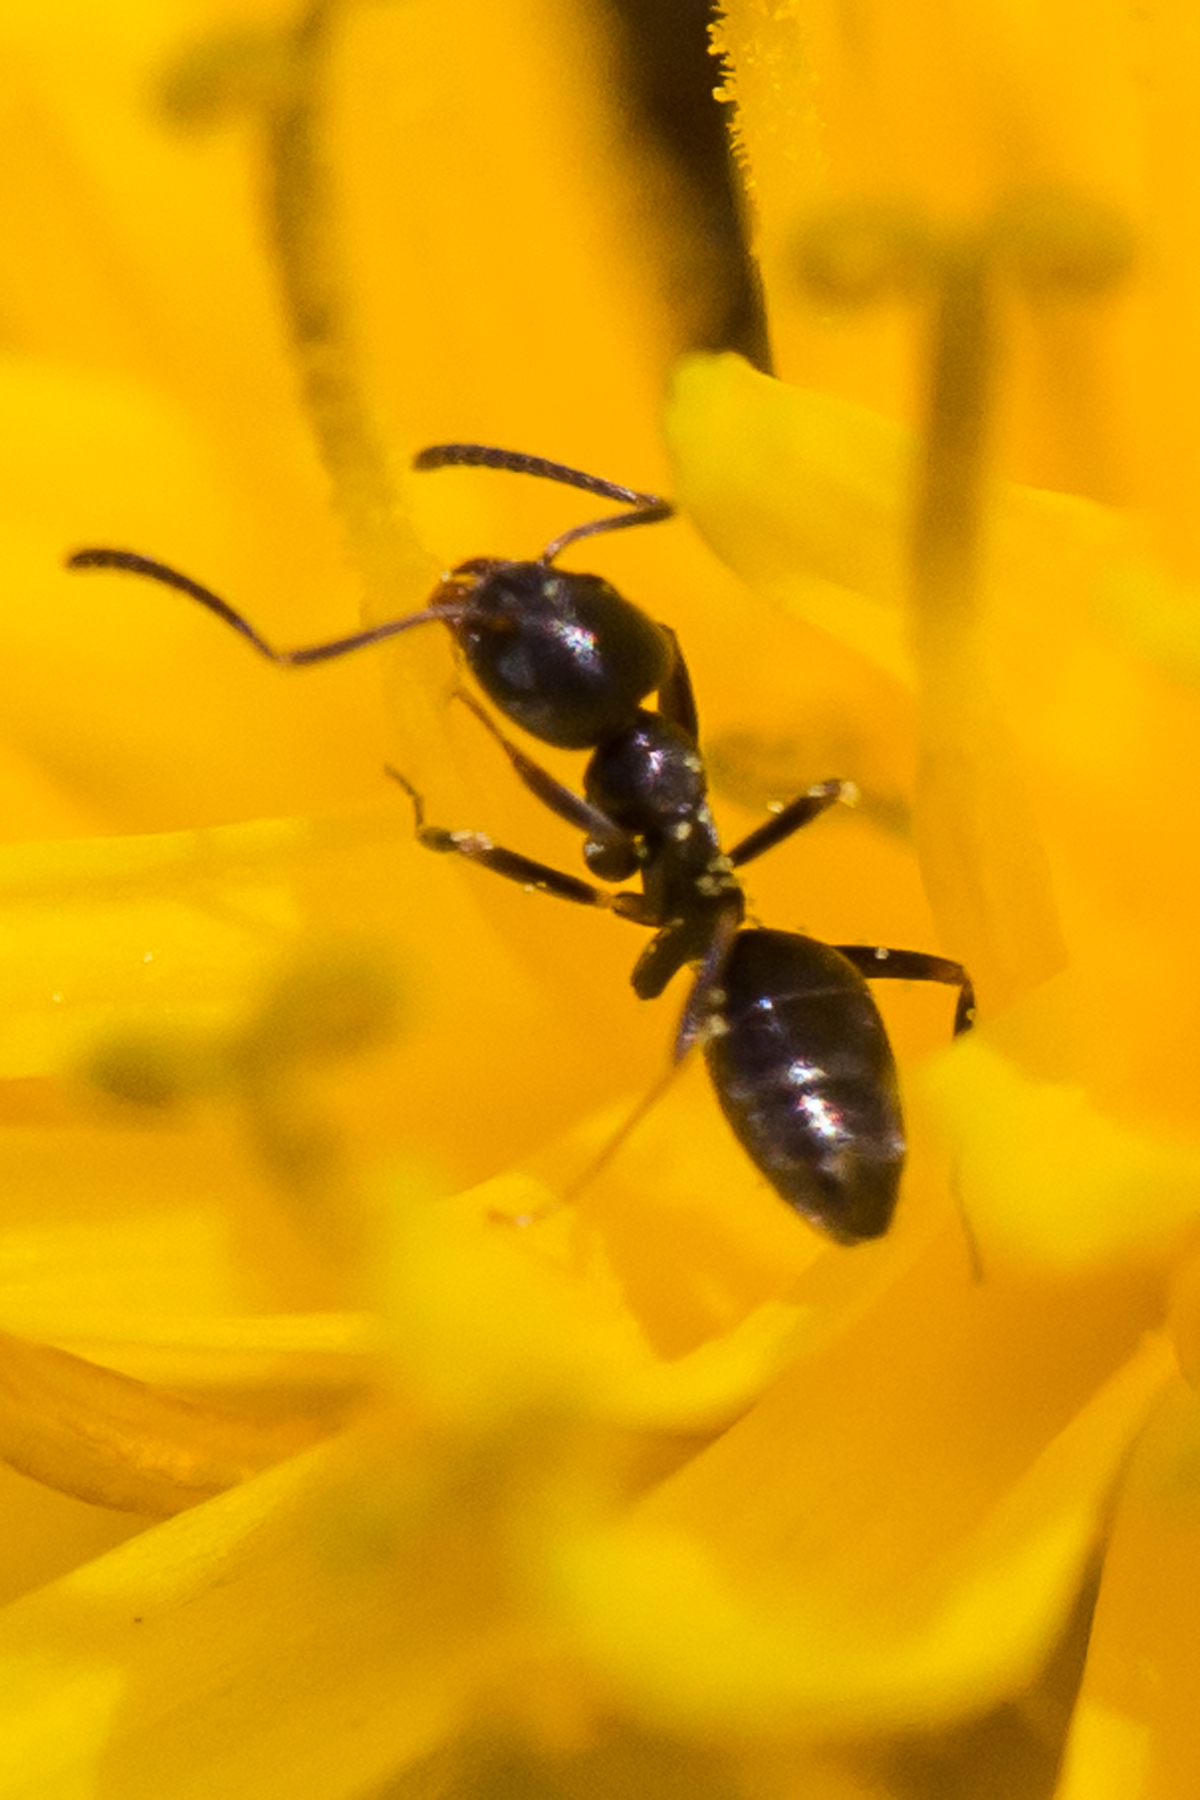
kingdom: Animalia
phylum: Arthropoda
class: Insecta
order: Hymenoptera
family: Formicidae
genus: Tapinoma
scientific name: Tapinoma sessile
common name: Odorous house ant
